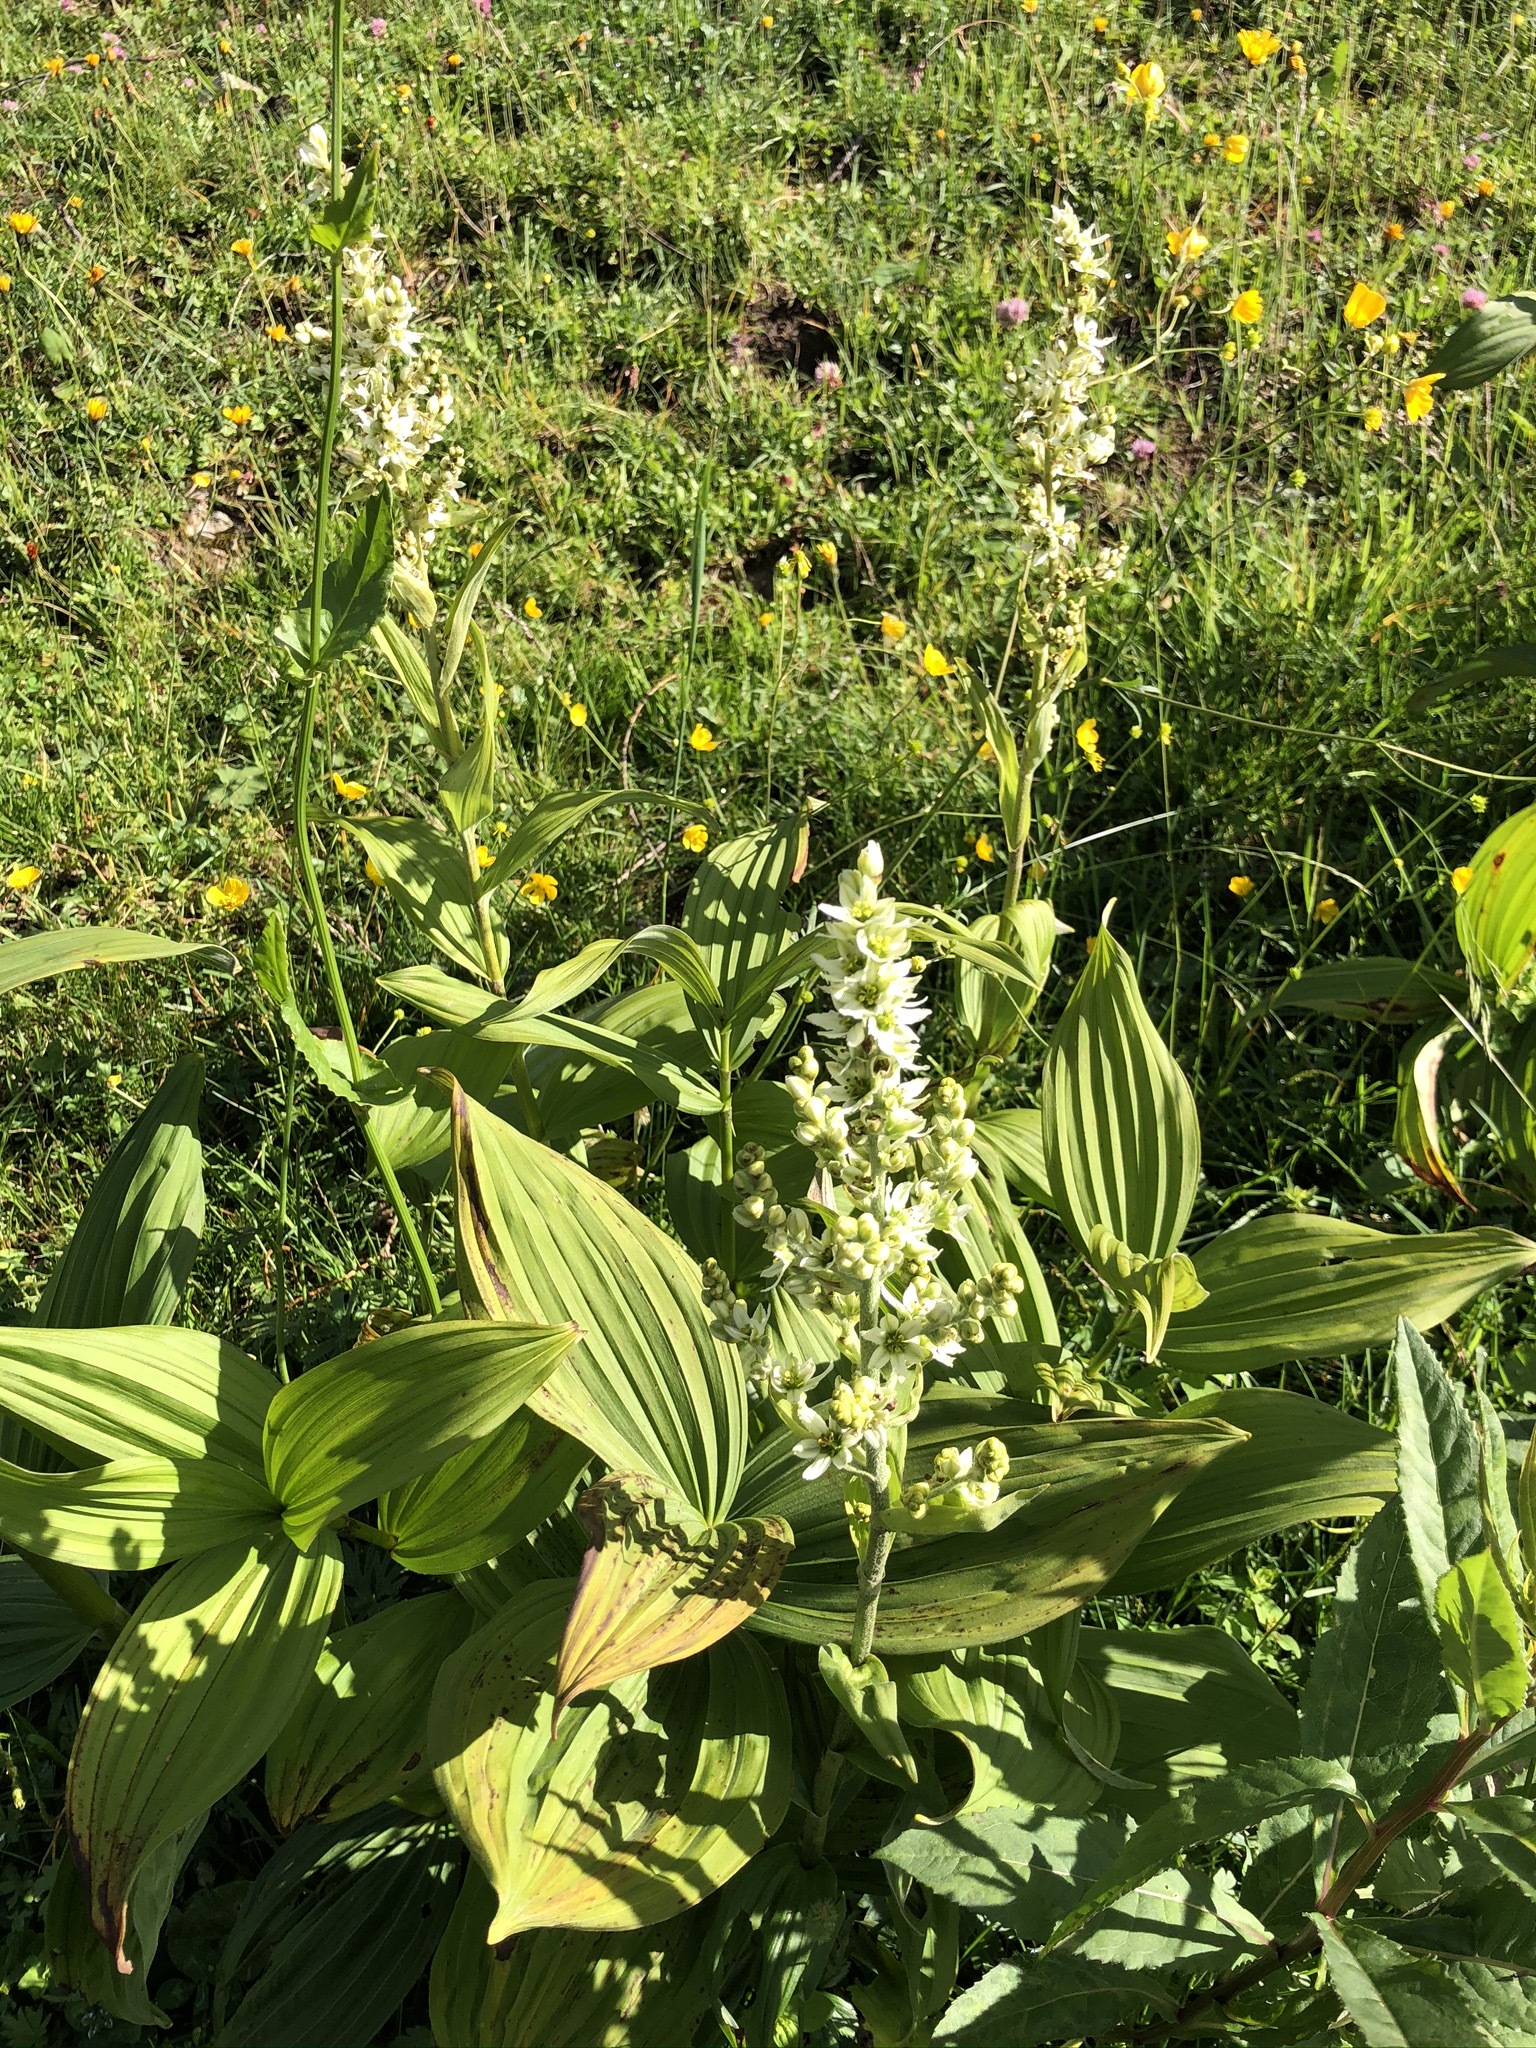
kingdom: Plantae
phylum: Tracheophyta
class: Liliopsida
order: Liliales
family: Melanthiaceae
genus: Veratrum
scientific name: Veratrum album
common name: White veratrum
